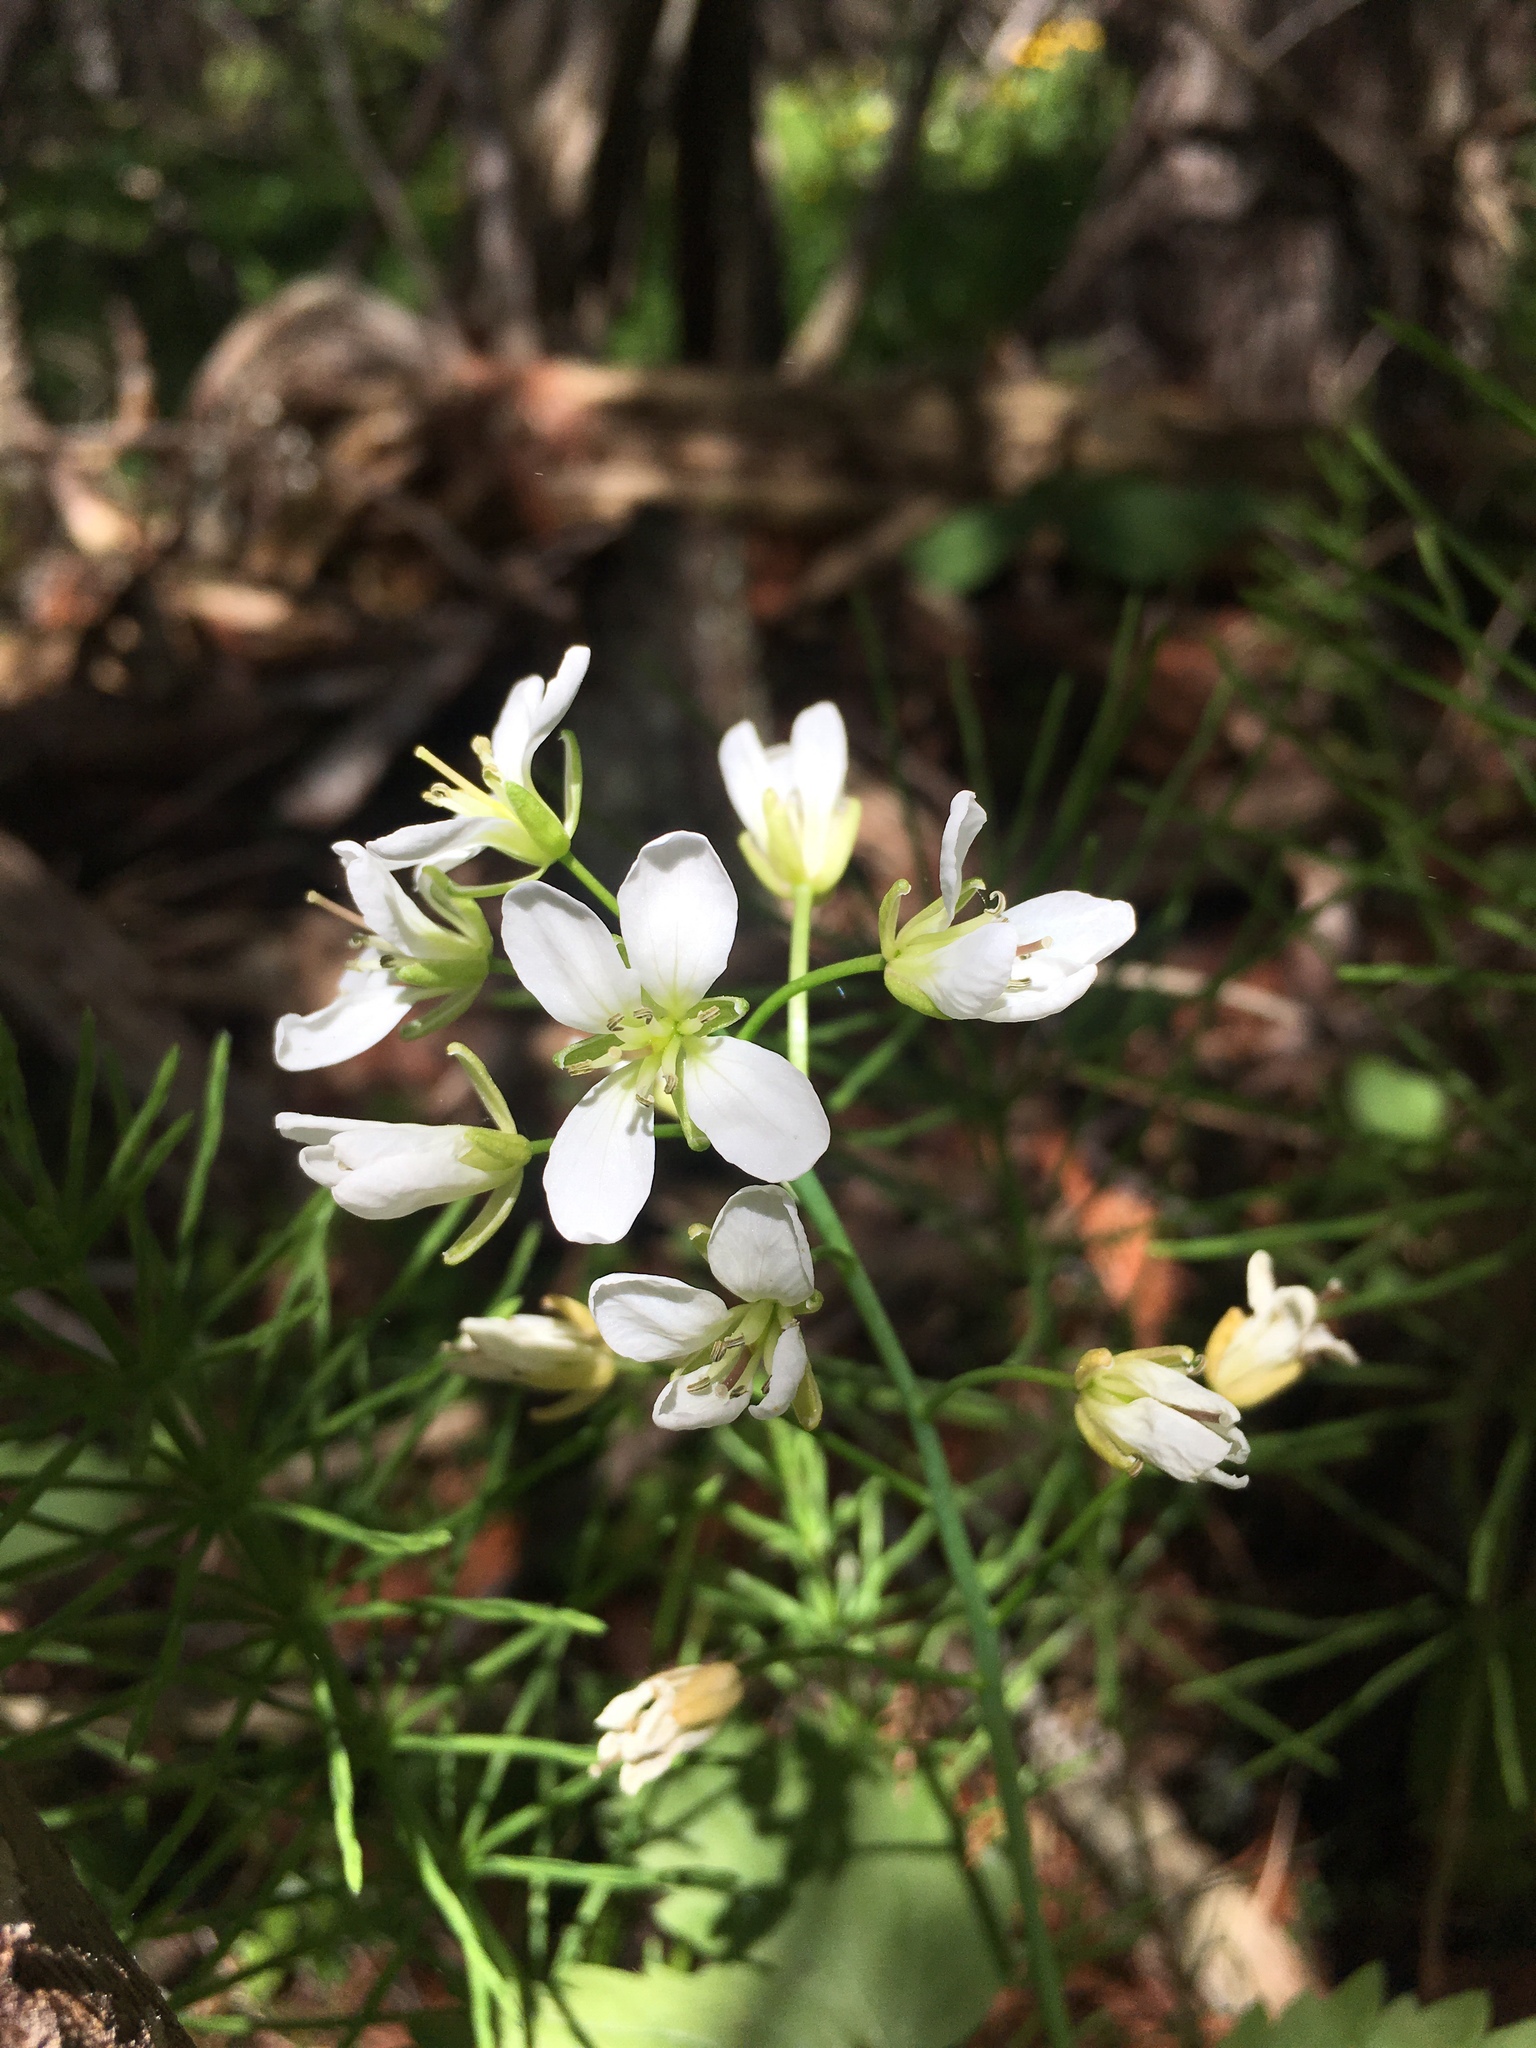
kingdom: Plantae
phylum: Tracheophyta
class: Magnoliopsida
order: Brassicales
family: Brassicaceae
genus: Cardamine
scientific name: Cardamine diphylla
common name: Broad-leaved toothwort
